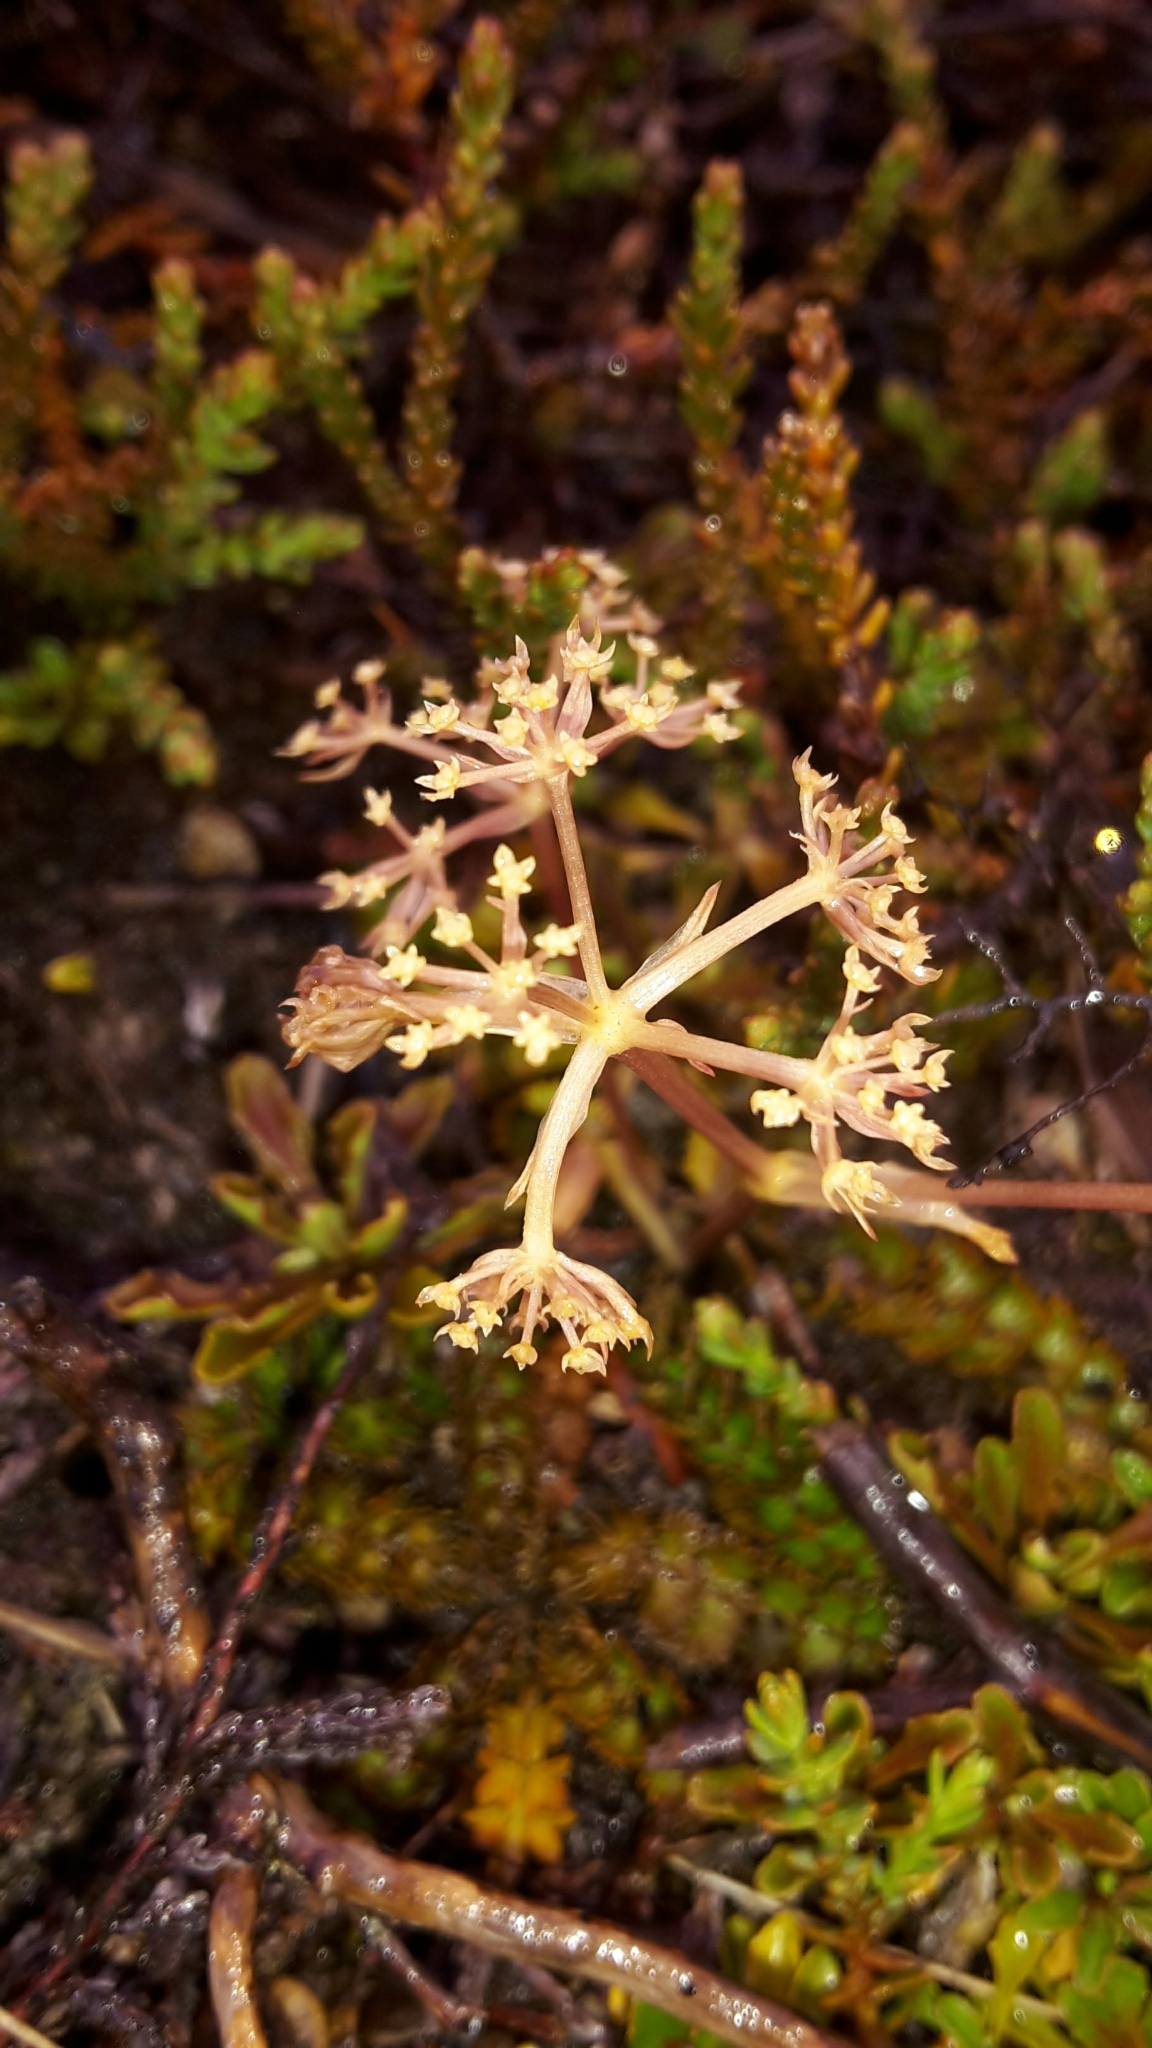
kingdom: Plantae
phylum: Tracheophyta
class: Magnoliopsida
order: Apiales
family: Apiaceae
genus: Anisotome
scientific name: Anisotome aromatica
